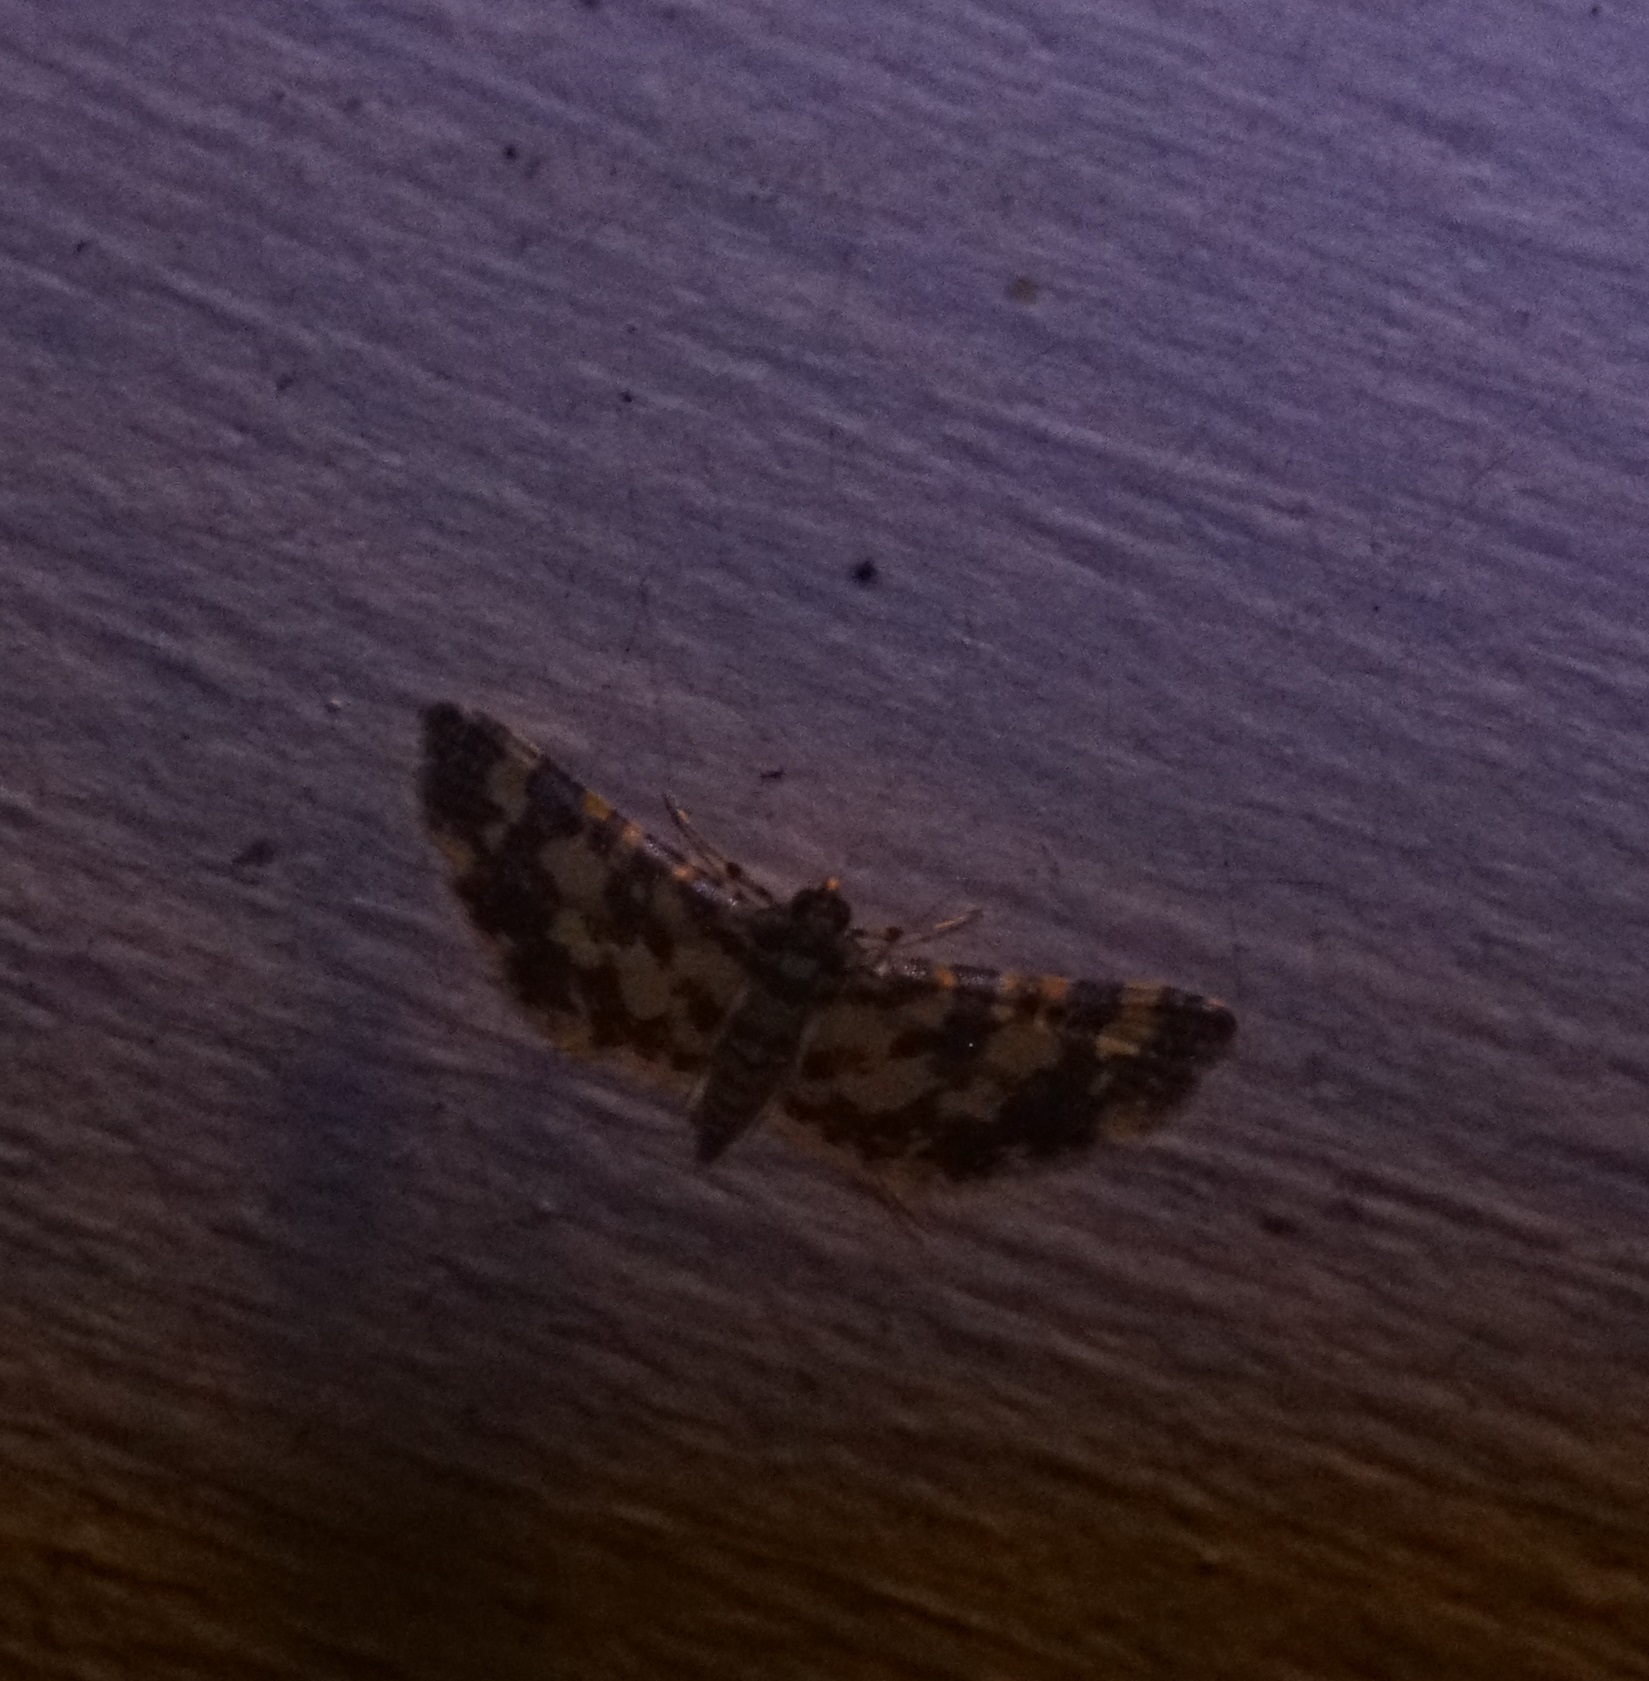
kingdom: Animalia
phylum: Arthropoda
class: Insecta
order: Lepidoptera
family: Crambidae
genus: Eurrhyparodes
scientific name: Eurrhyparodes tricoloralis
